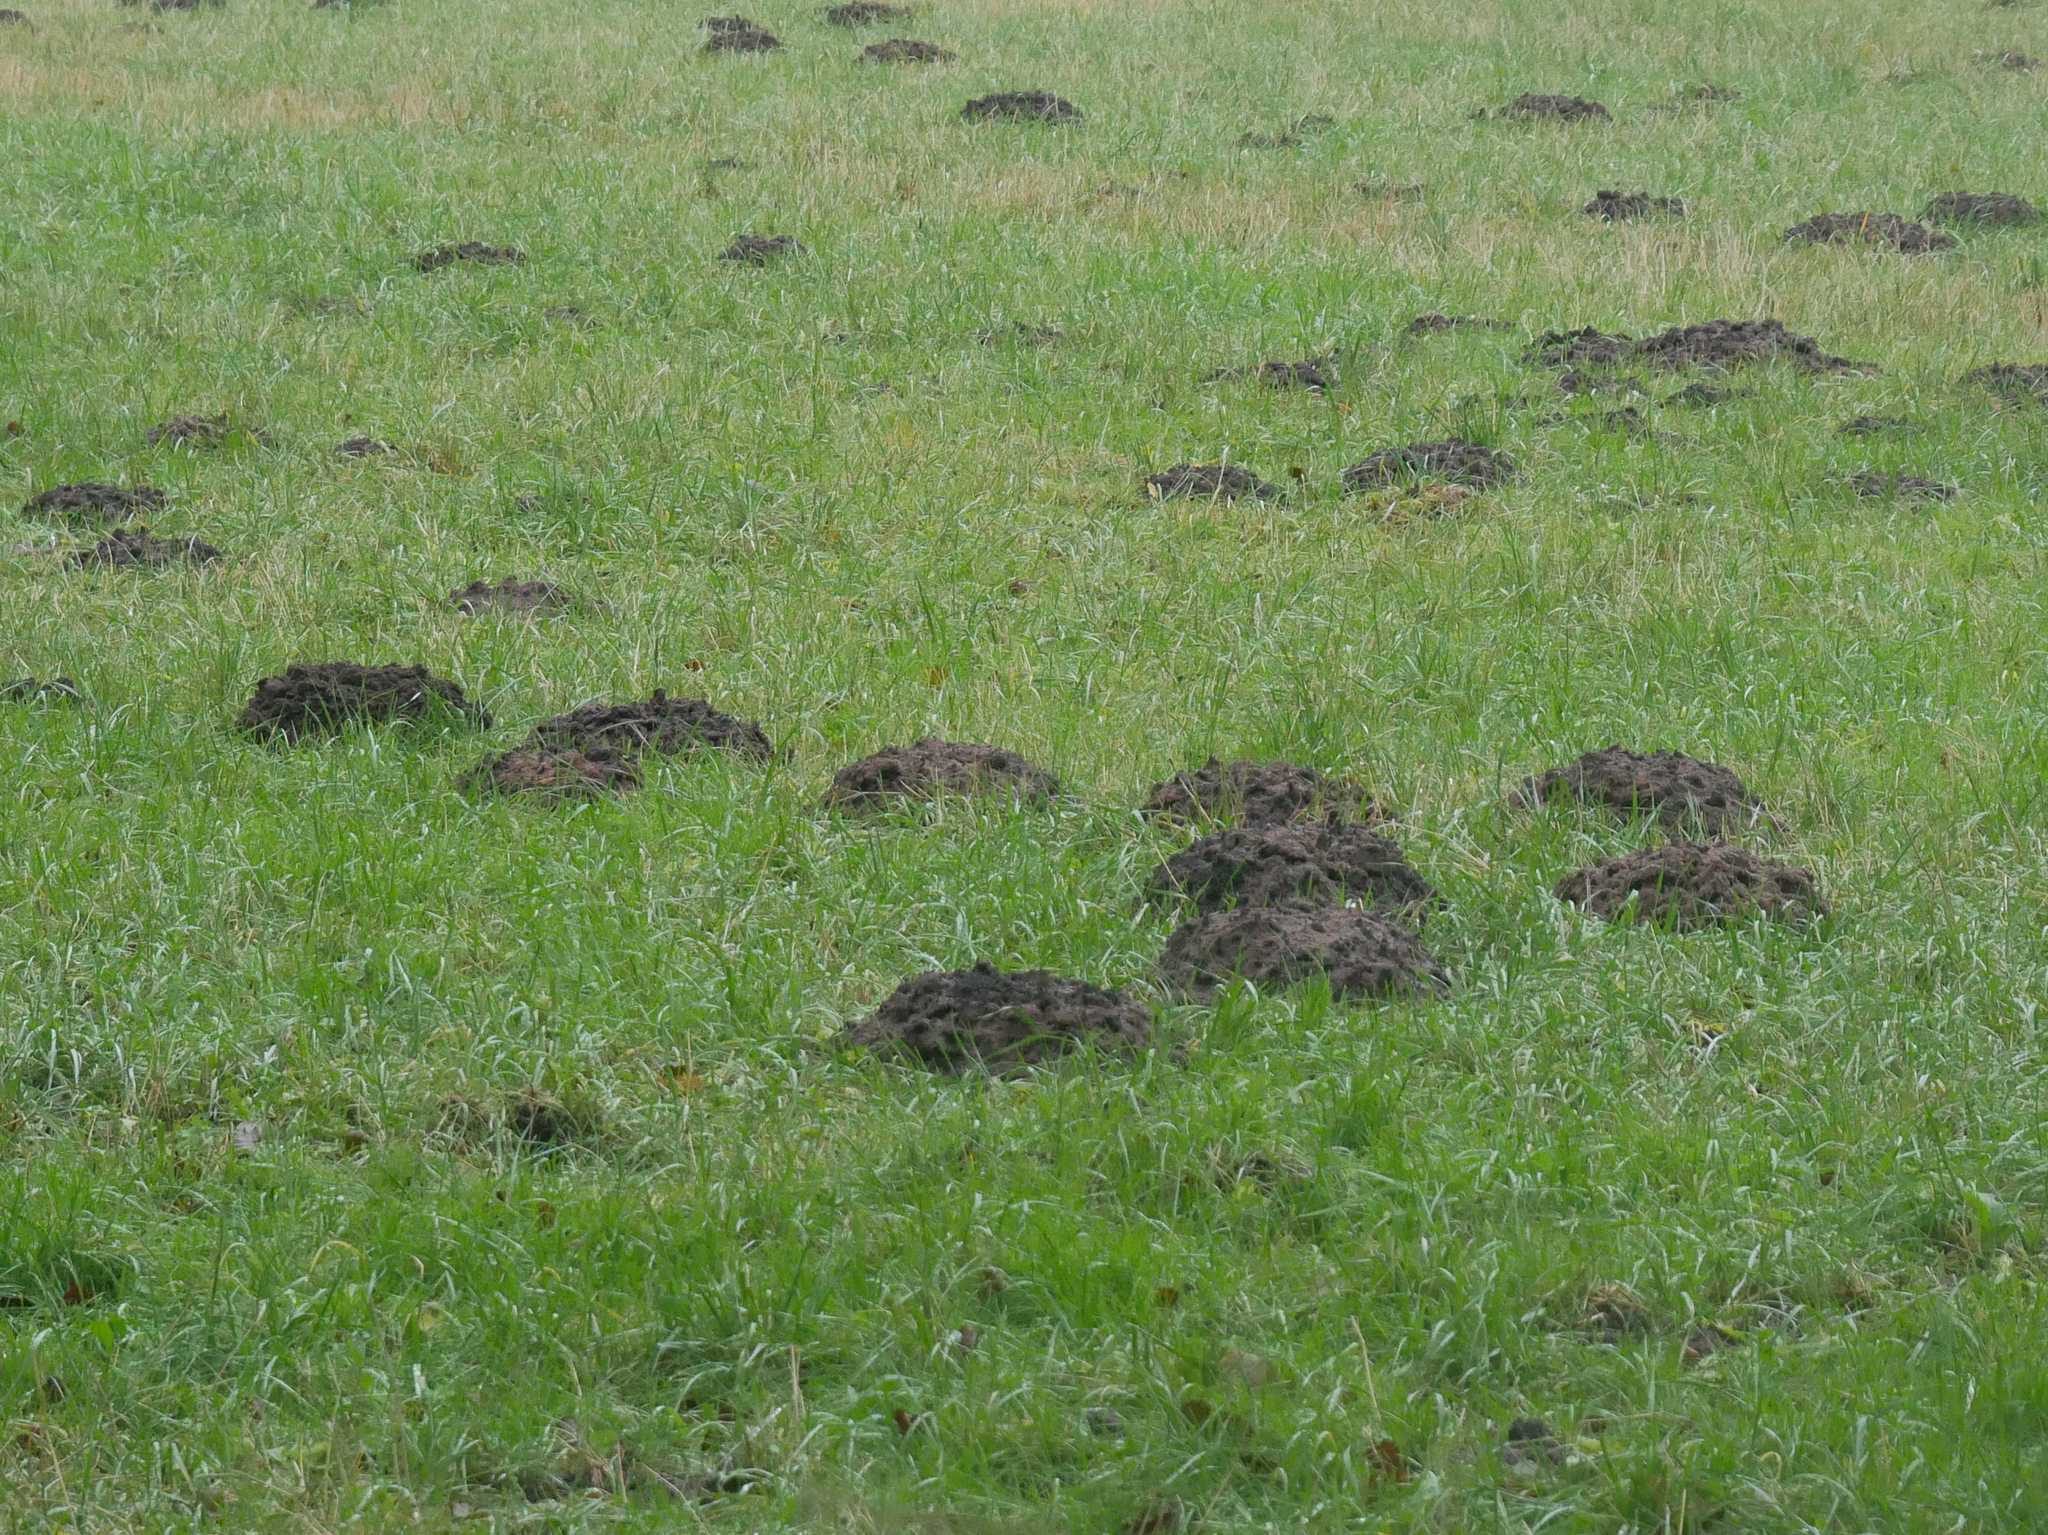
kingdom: Animalia
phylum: Chordata
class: Mammalia
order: Soricomorpha
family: Talpidae
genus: Talpa
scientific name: Talpa europaea
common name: European mole
